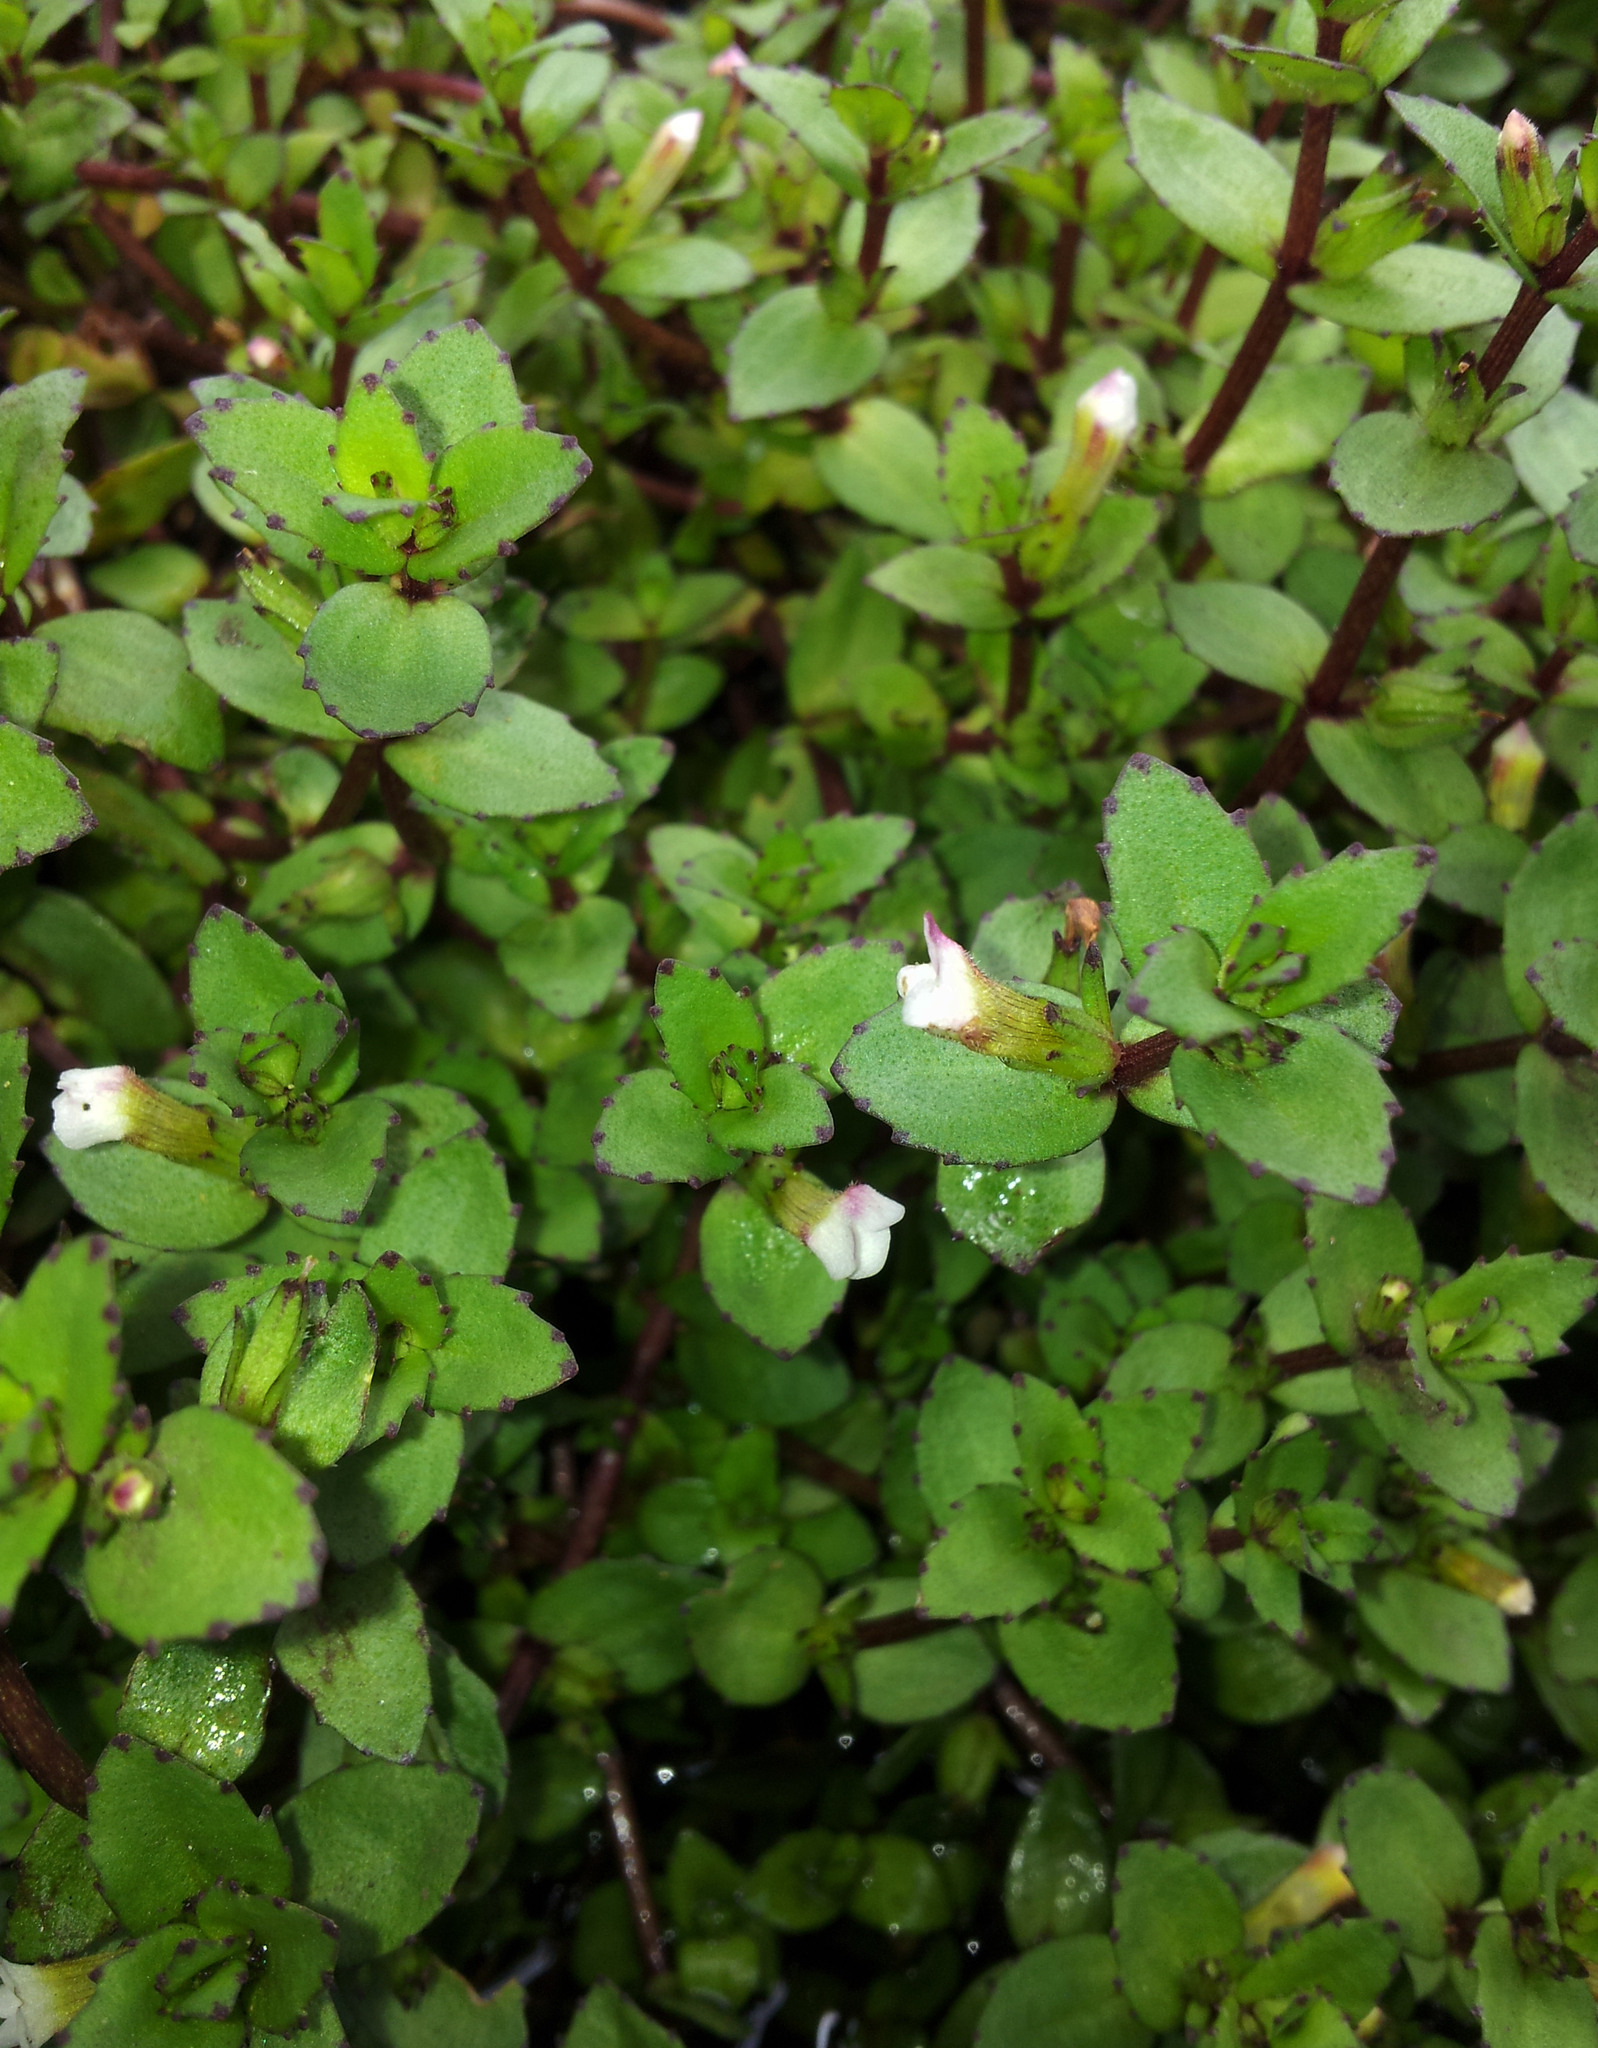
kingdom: Plantae
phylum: Tracheophyta
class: Magnoliopsida
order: Lamiales
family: Plantaginaceae
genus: Gratiola
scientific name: Gratiola sexdentata
